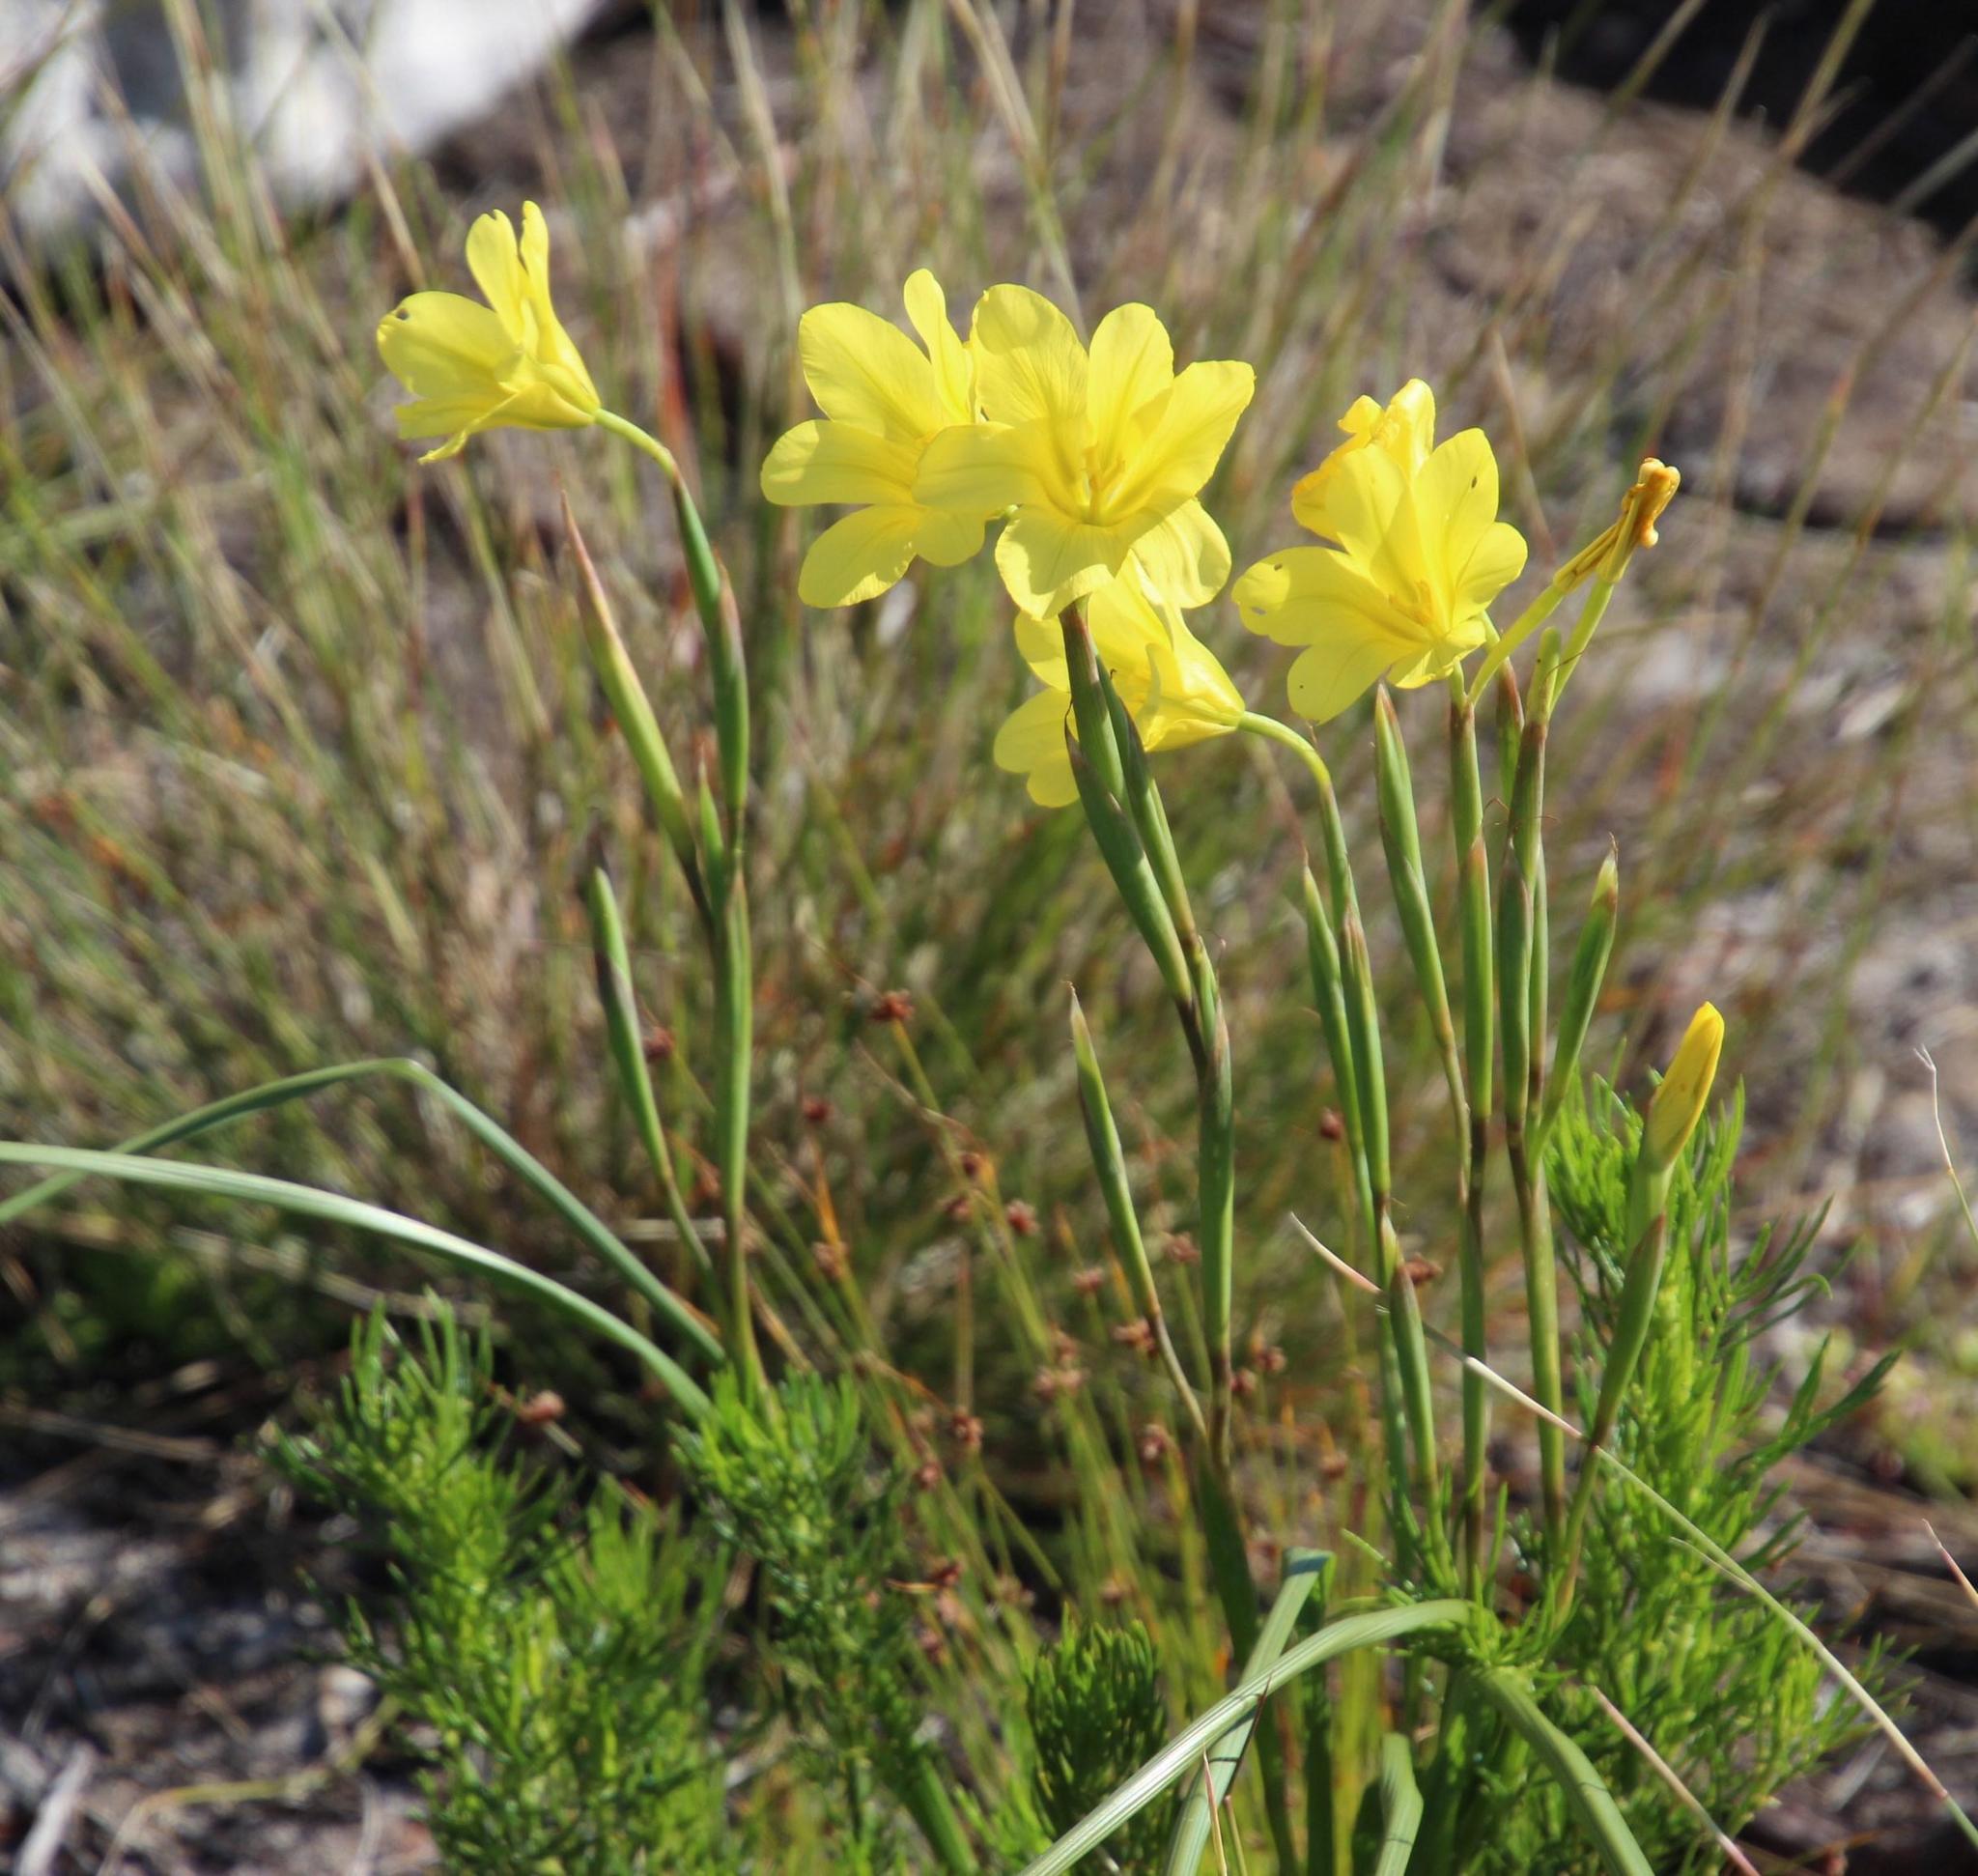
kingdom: Plantae
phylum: Tracheophyta
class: Liliopsida
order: Asparagales
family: Iridaceae
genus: Moraea
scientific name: Moraea ochroleuca
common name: Red tulp
